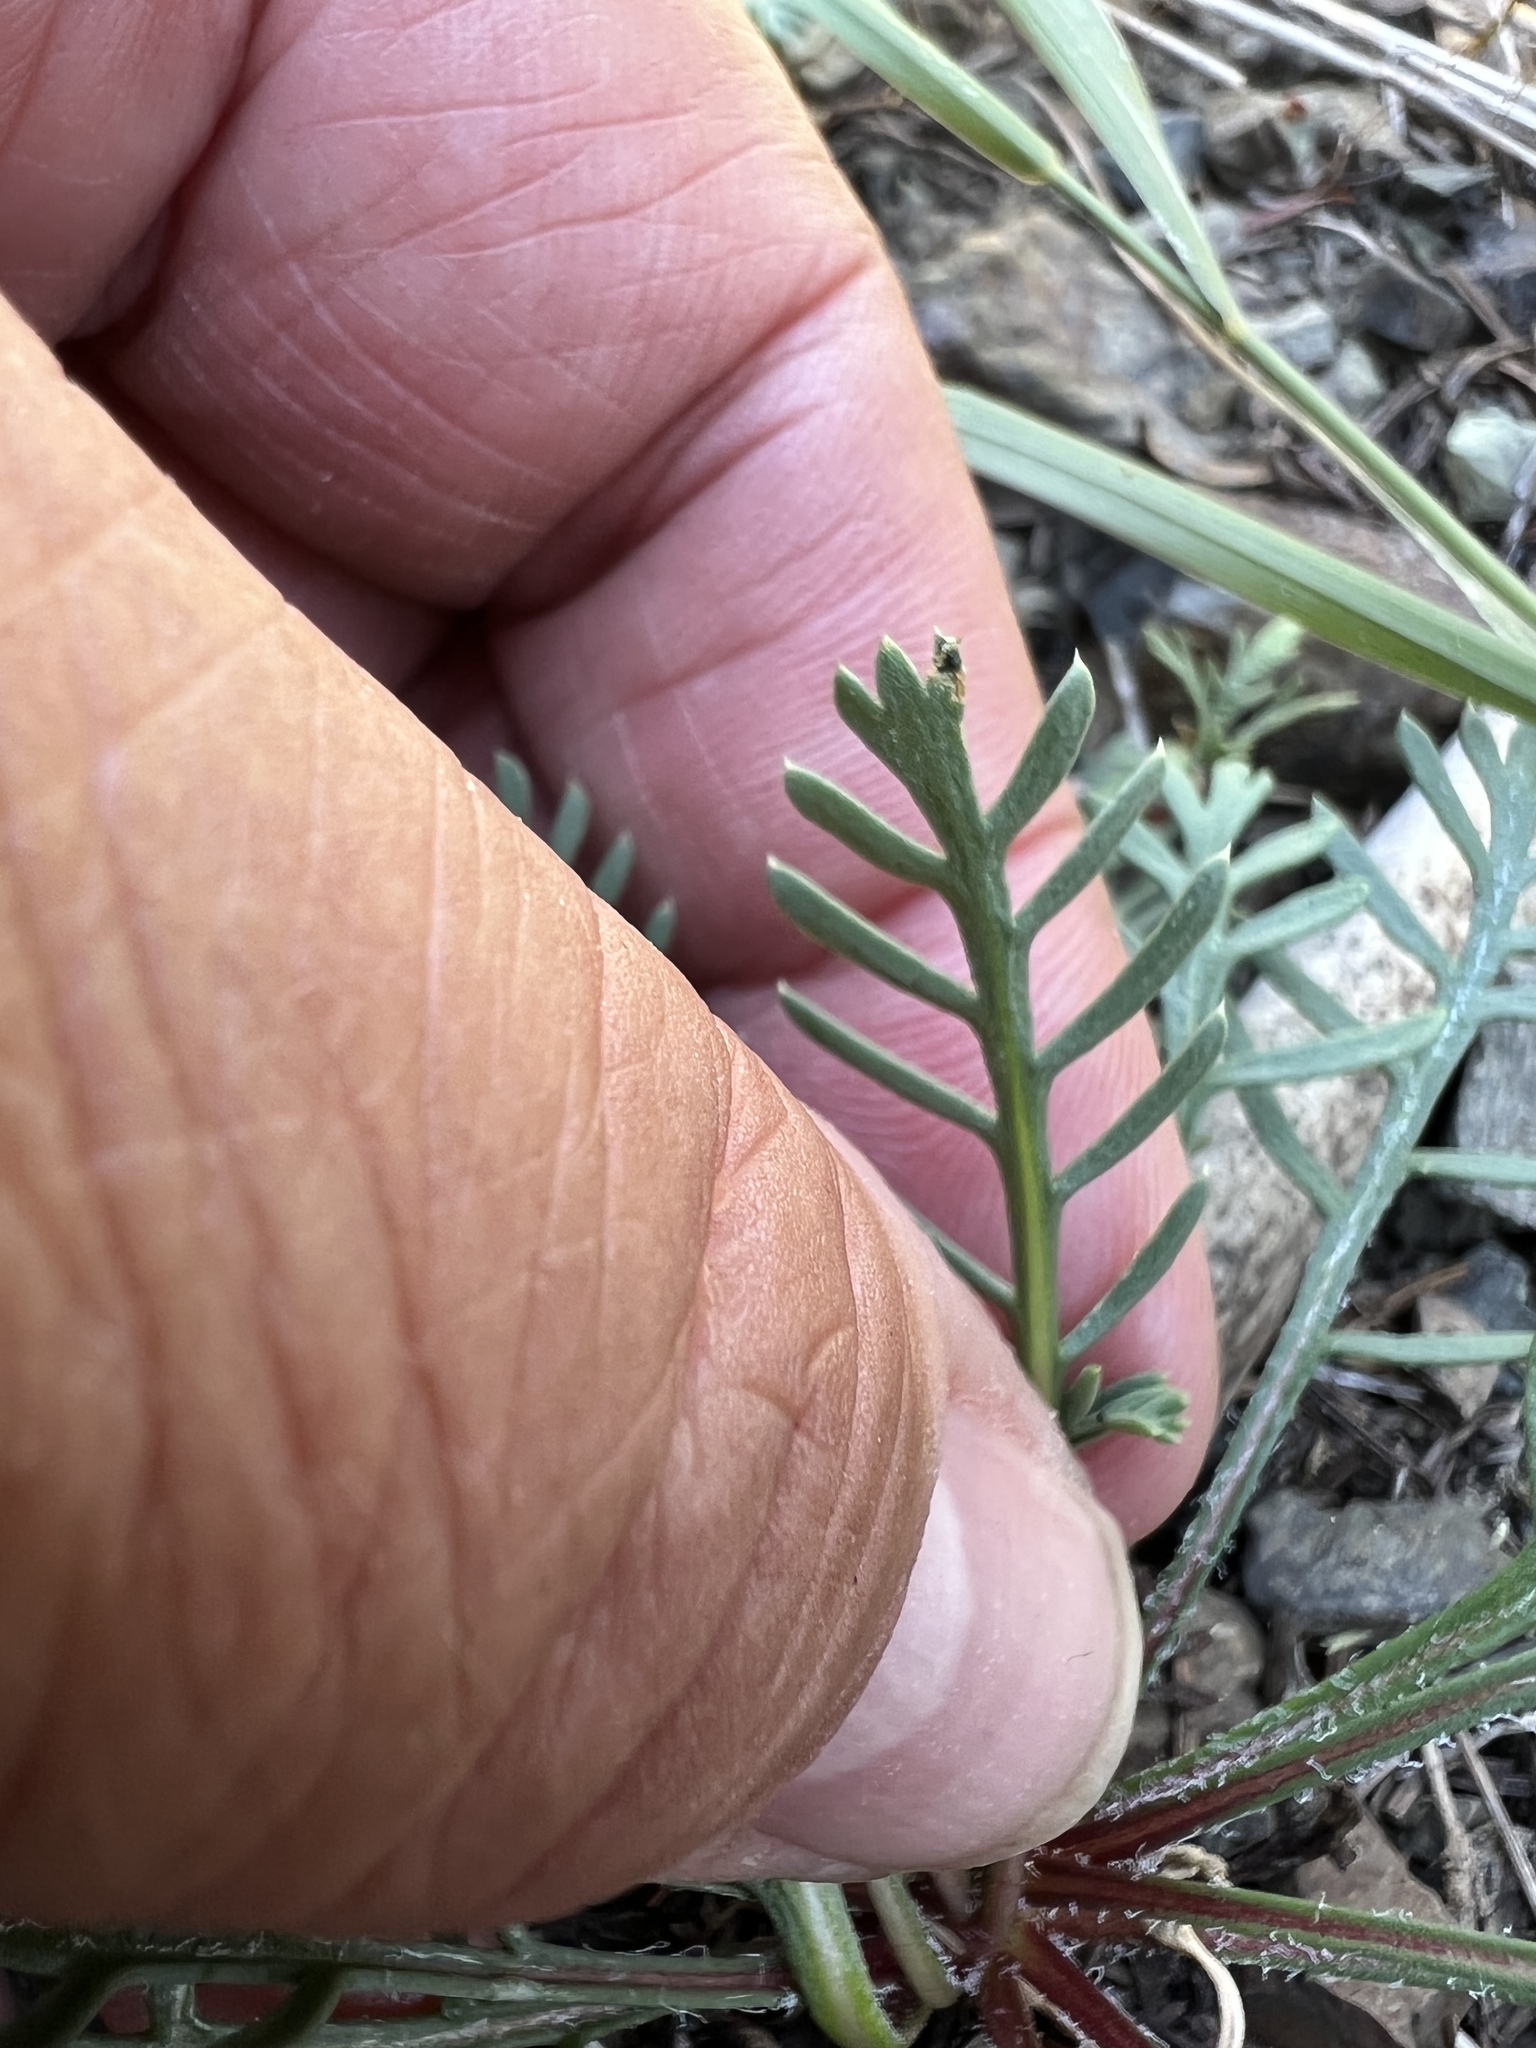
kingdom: Plantae
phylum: Tracheophyta
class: Magnoliopsida
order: Ericales
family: Polemoniaceae
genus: Ipomopsis
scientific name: Ipomopsis aggregata
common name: Scarlet gilia
